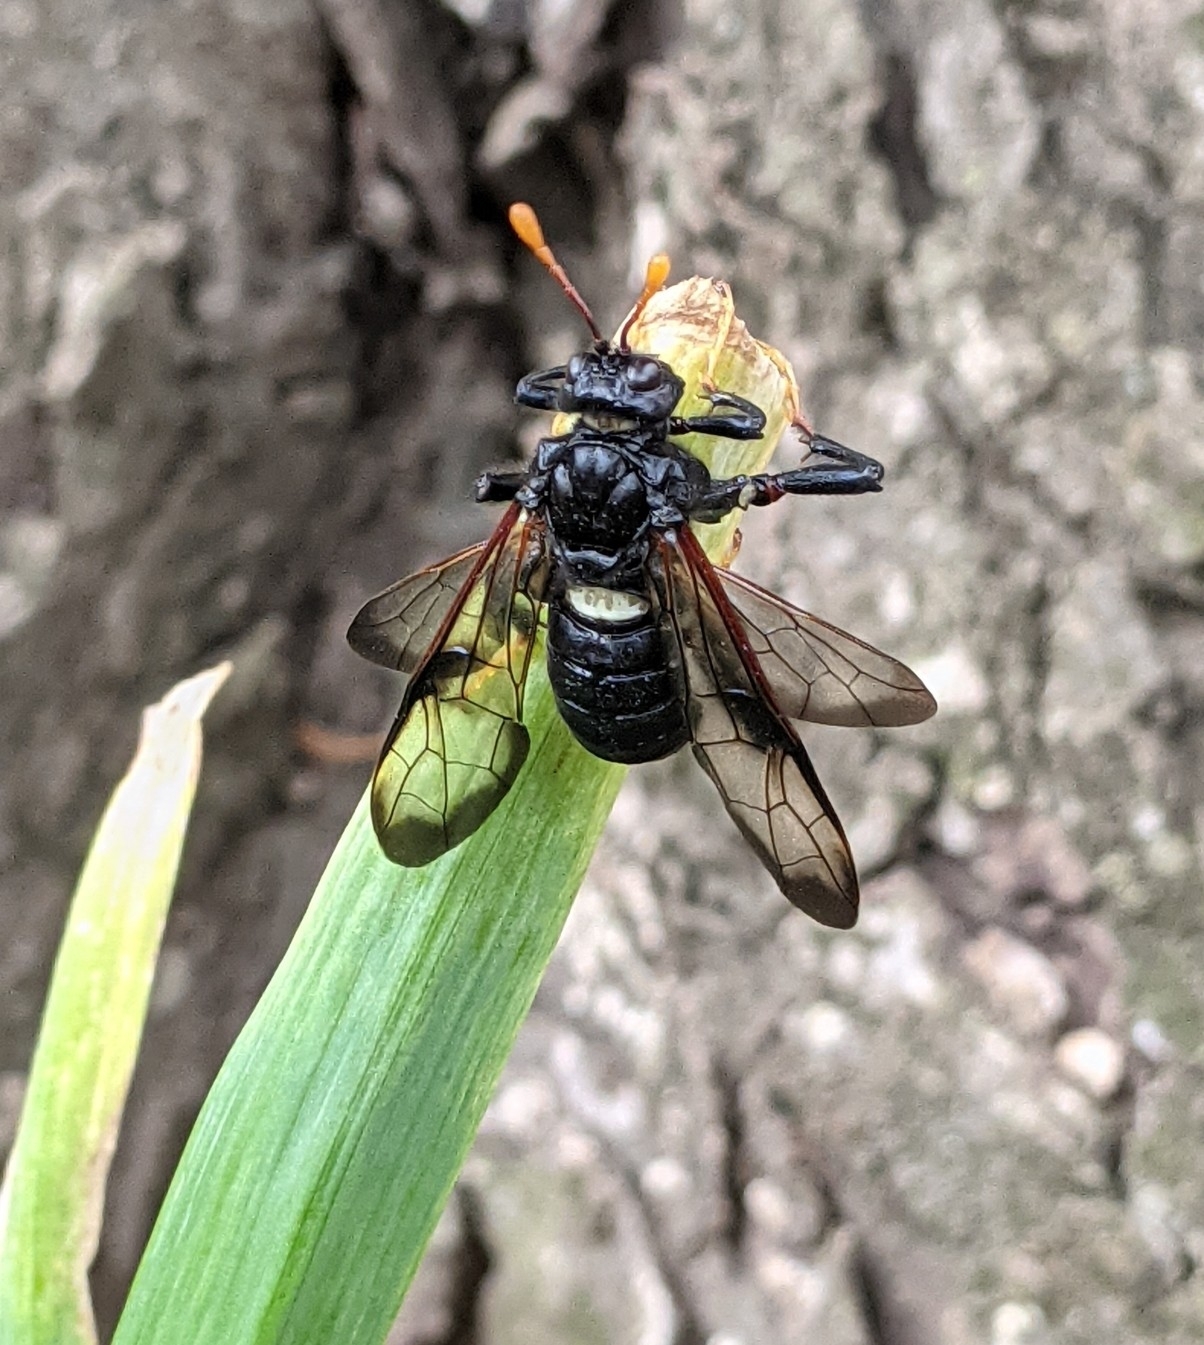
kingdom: Animalia
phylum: Arthropoda
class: Insecta
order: Hymenoptera
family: Cimbicidae
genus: Cimbex
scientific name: Cimbex americana
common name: Elm sawfly
